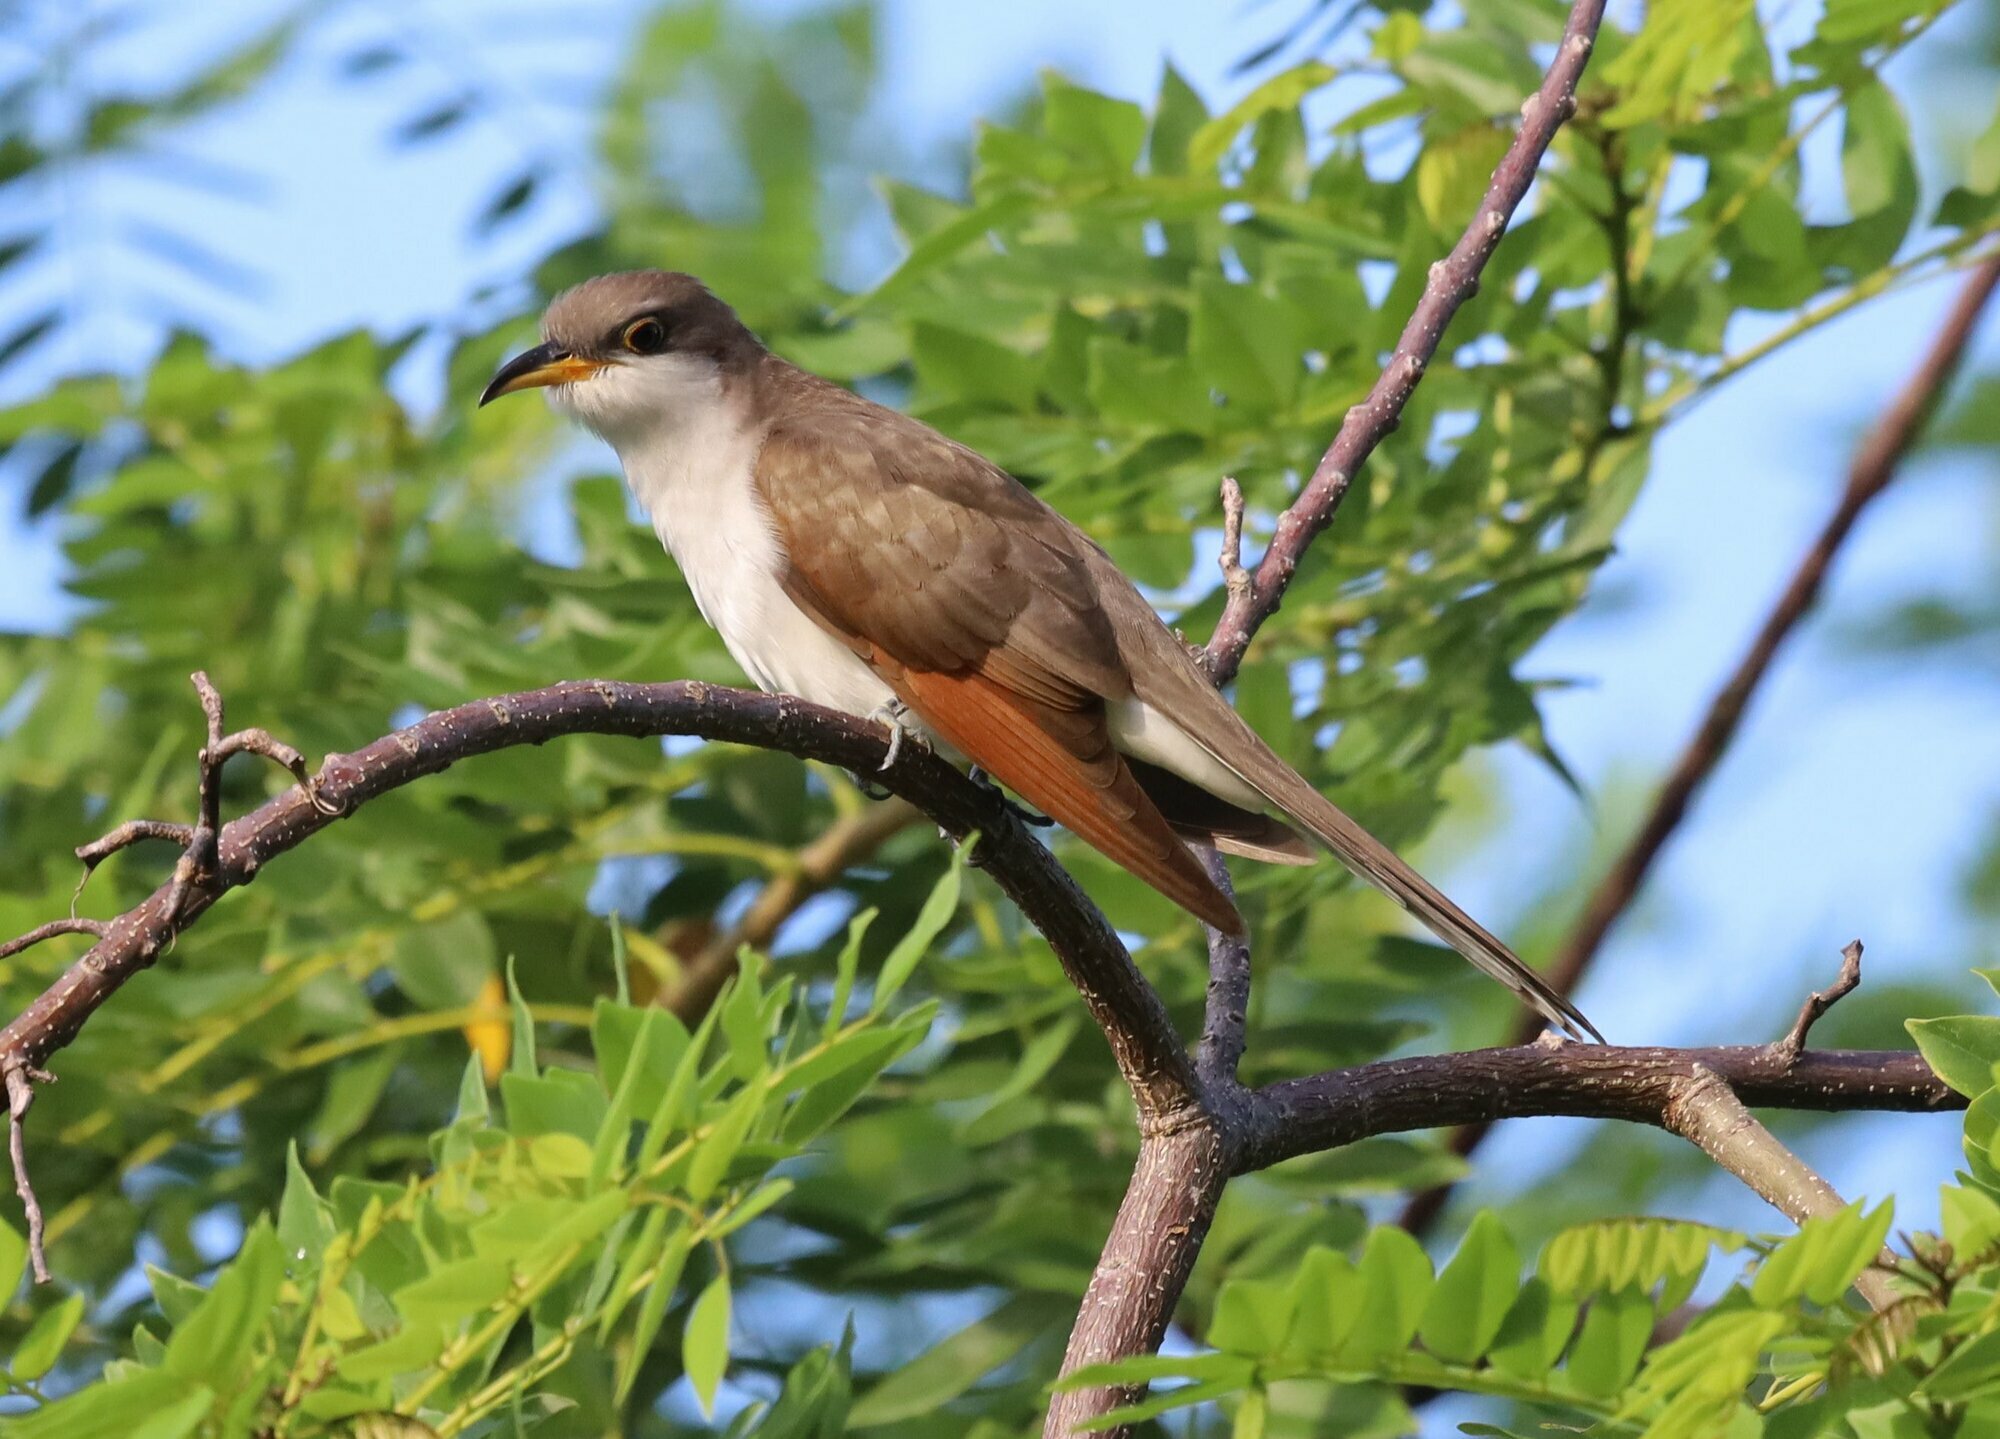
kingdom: Animalia
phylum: Chordata
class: Aves
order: Cuculiformes
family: Cuculidae
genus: Coccyzus
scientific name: Coccyzus americanus
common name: Yellow-billed cuckoo
